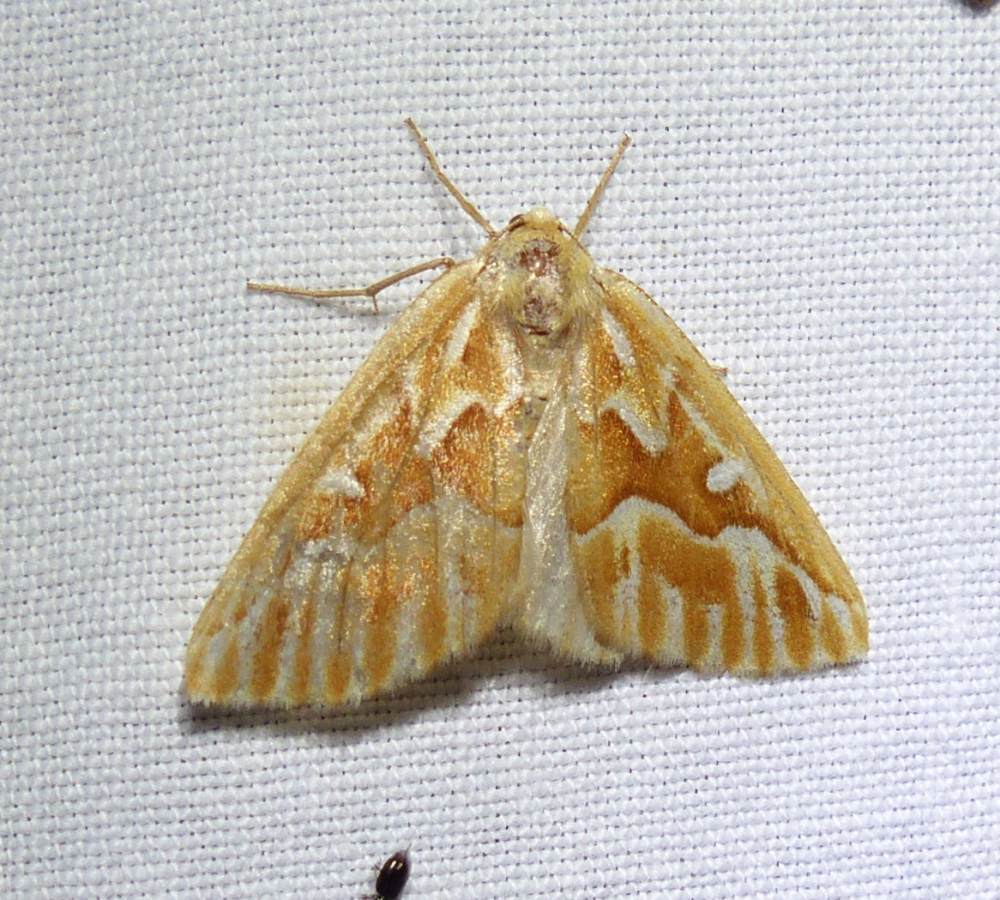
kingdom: Animalia
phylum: Arthropoda
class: Insecta
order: Lepidoptera
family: Geometridae
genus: Caripeta
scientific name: Caripeta piniata
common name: Northern pine looper moth
